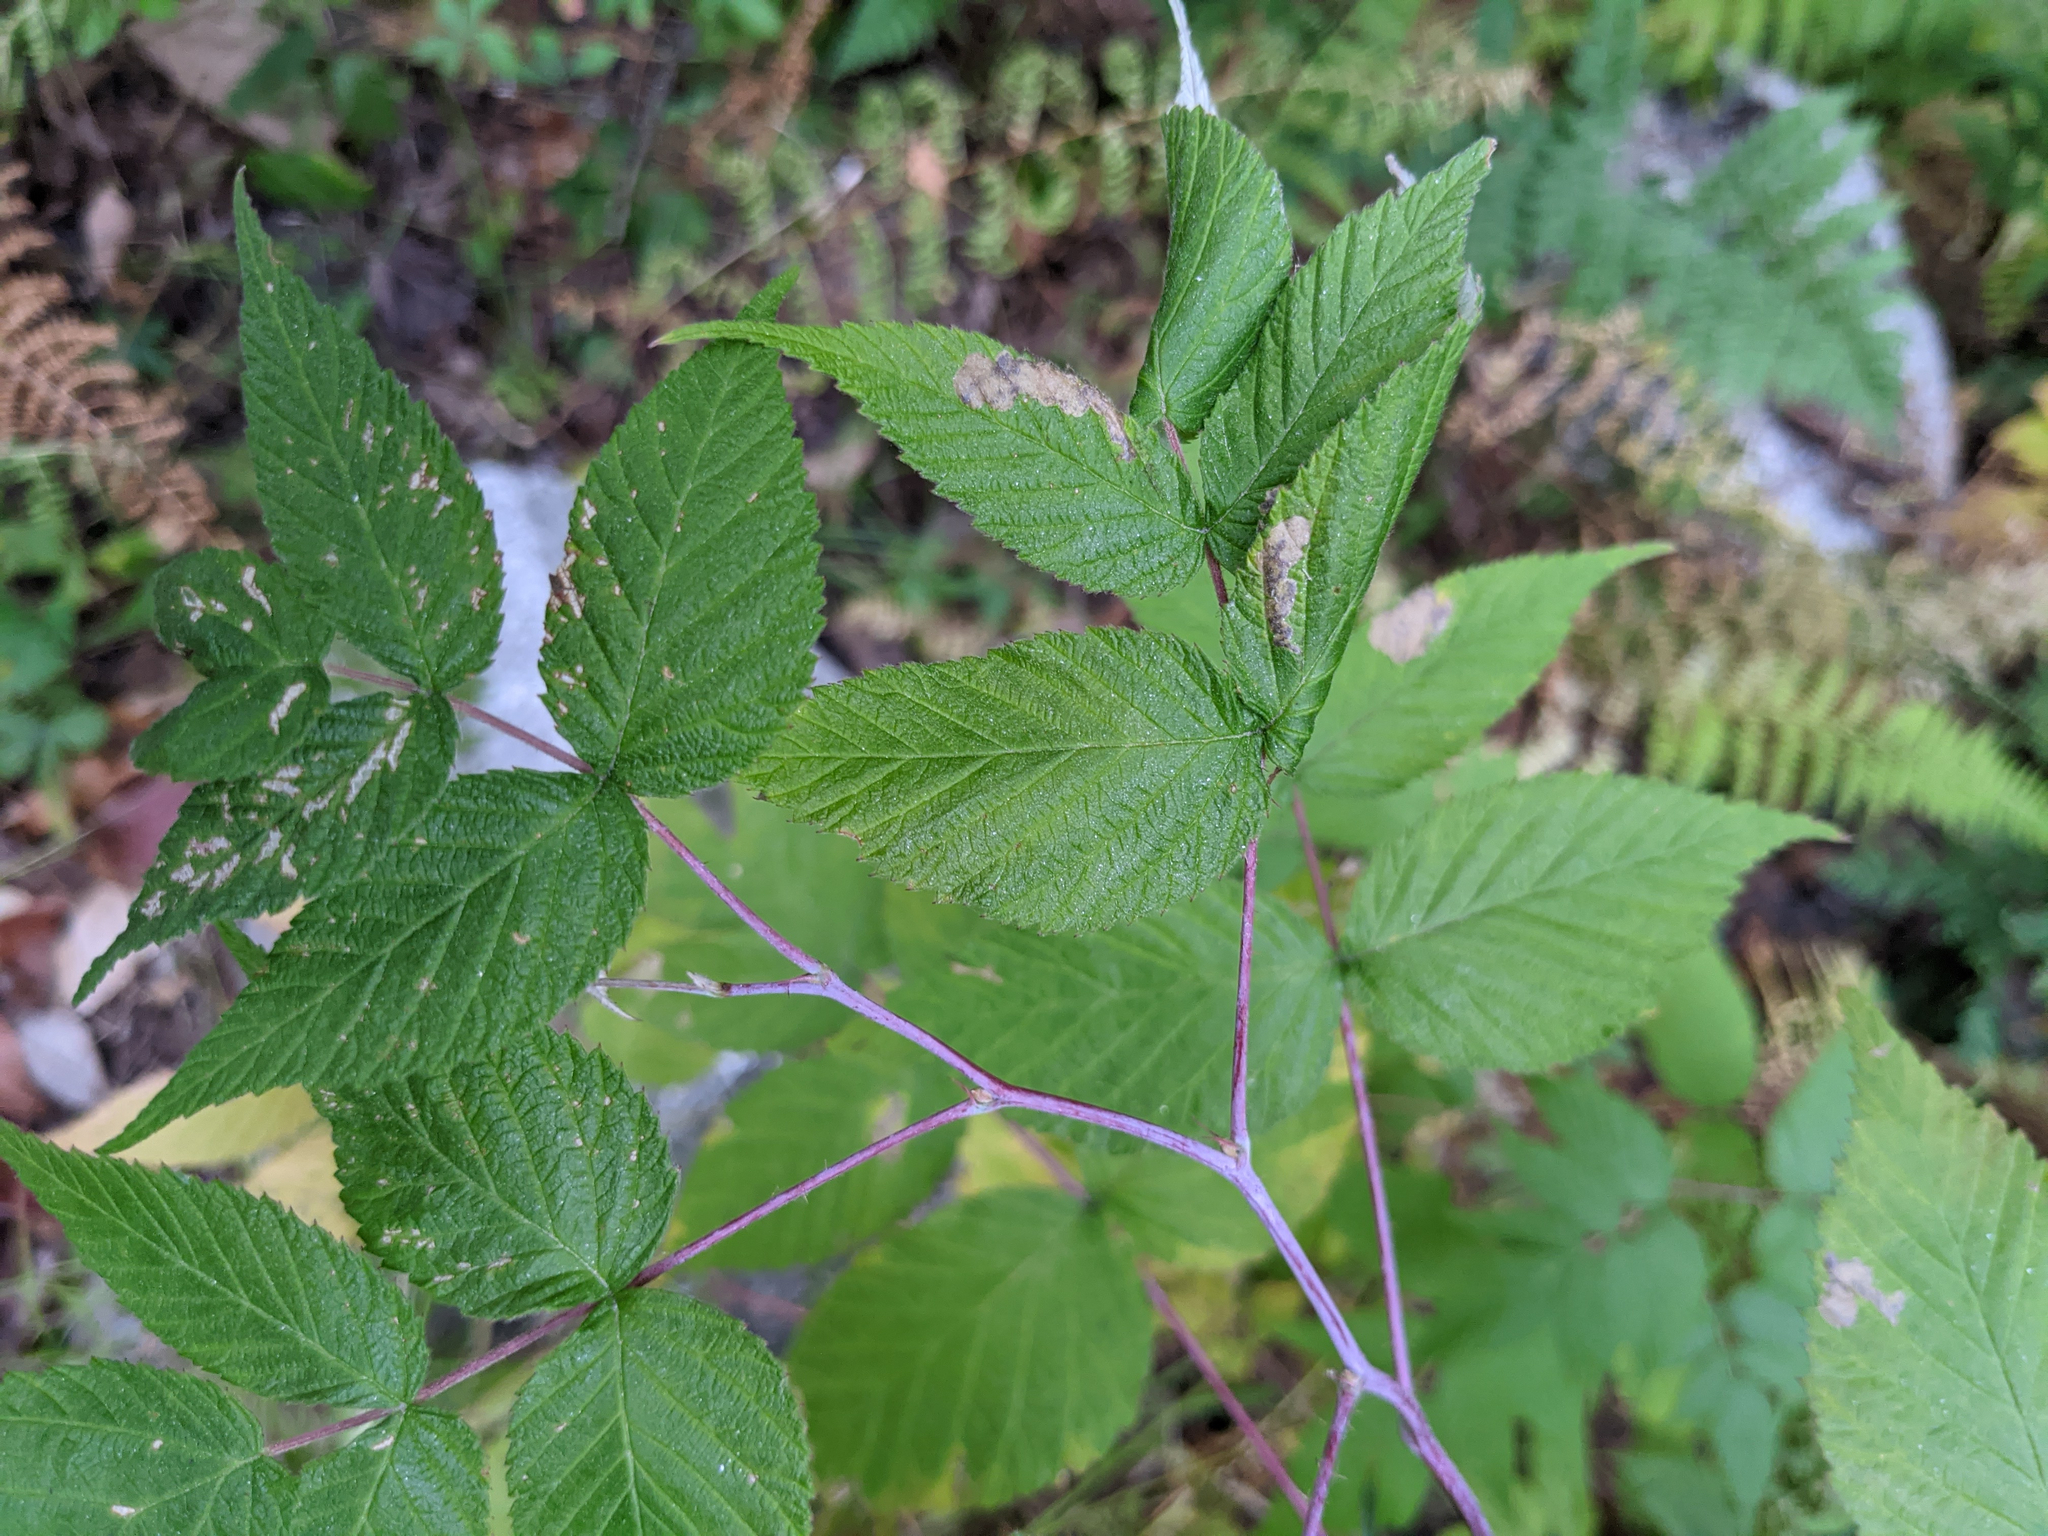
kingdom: Plantae
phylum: Tracheophyta
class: Magnoliopsida
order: Rosales
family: Rosaceae
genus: Rubus
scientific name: Rubus idaeus
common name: Raspberry
